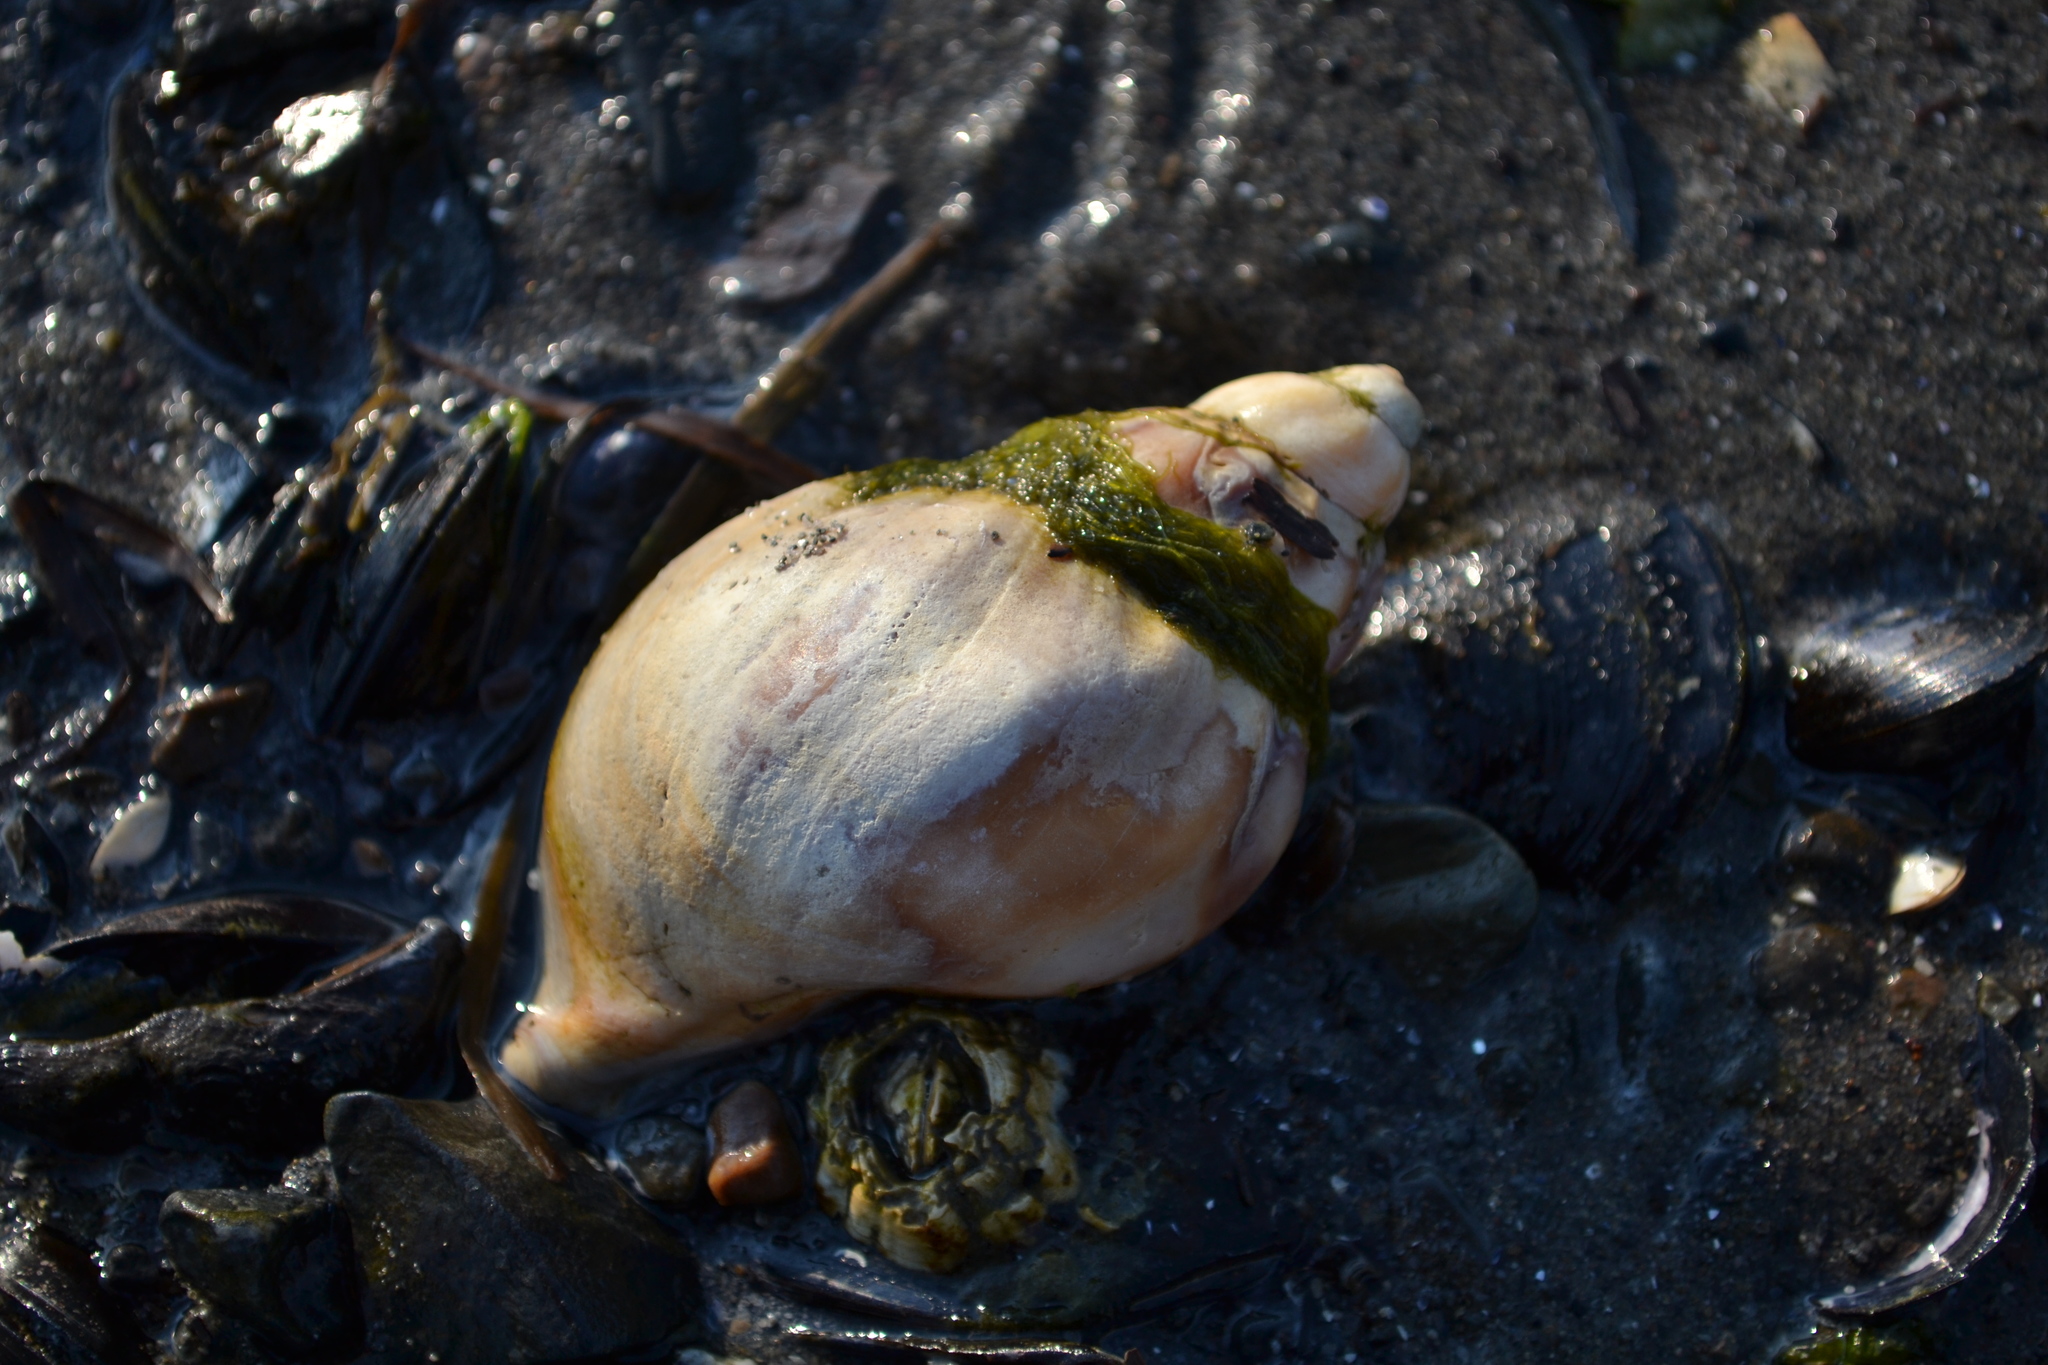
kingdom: Animalia
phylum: Mollusca
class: Gastropoda
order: Neogastropoda
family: Buccinidae
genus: Buccinum
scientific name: Buccinum undatum
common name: Common whelk
